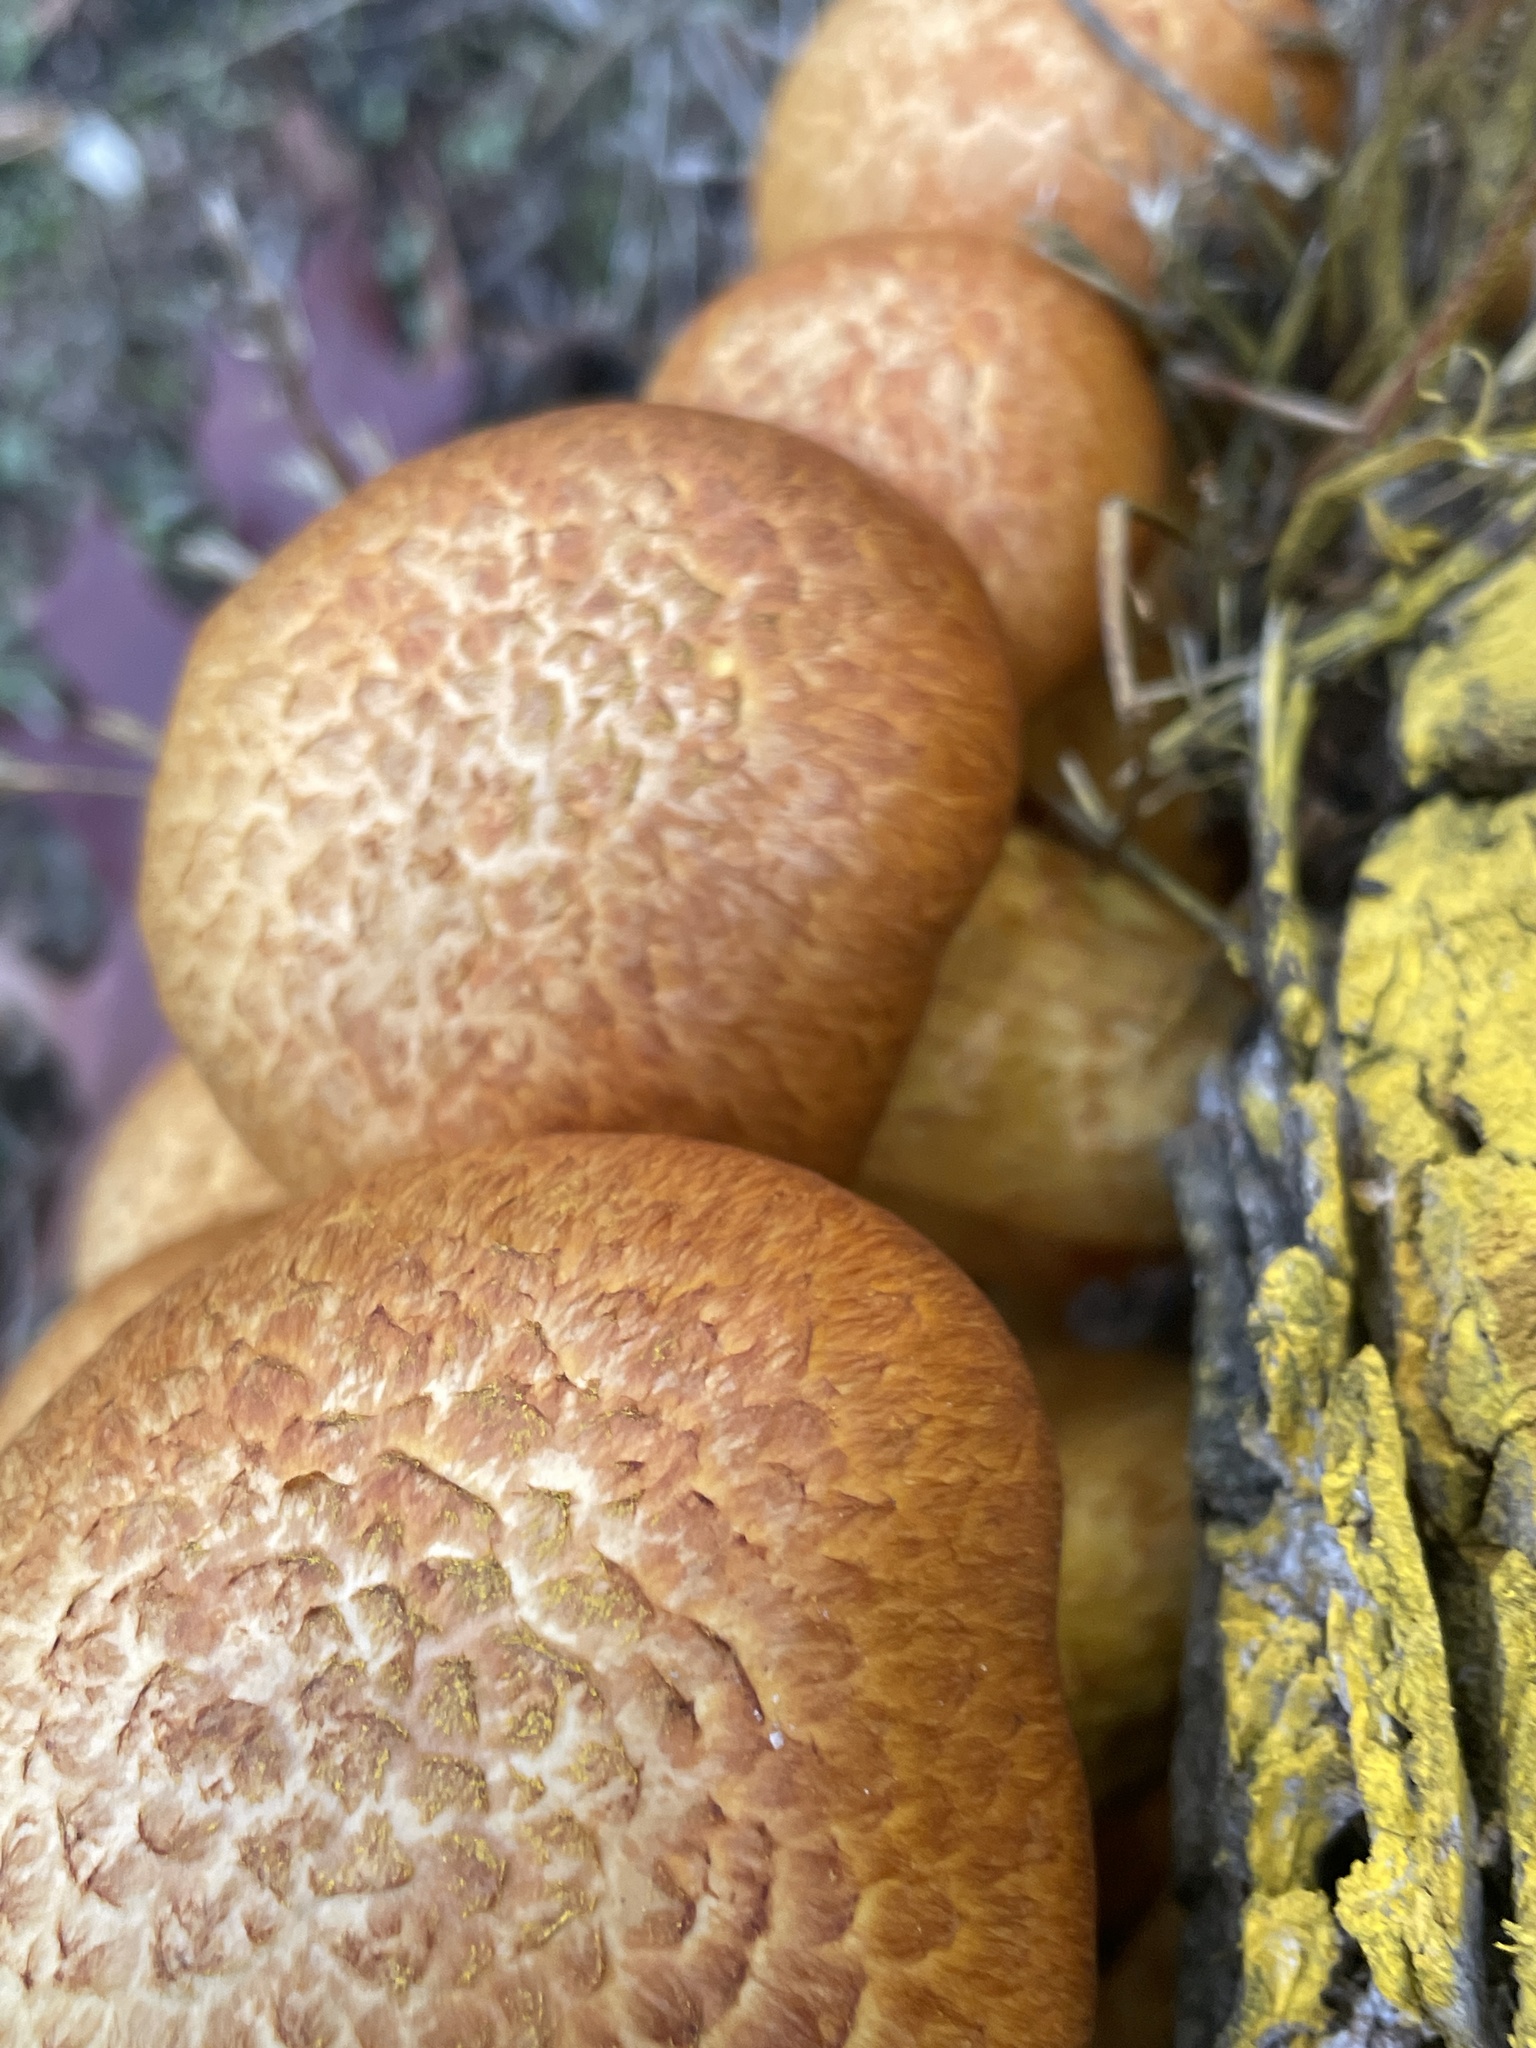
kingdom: Fungi
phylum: Basidiomycota
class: Agaricomycetes
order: Agaricales
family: Hymenogastraceae
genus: Gymnopilus
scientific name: Gymnopilus junonius
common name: Spectacular rustgill
